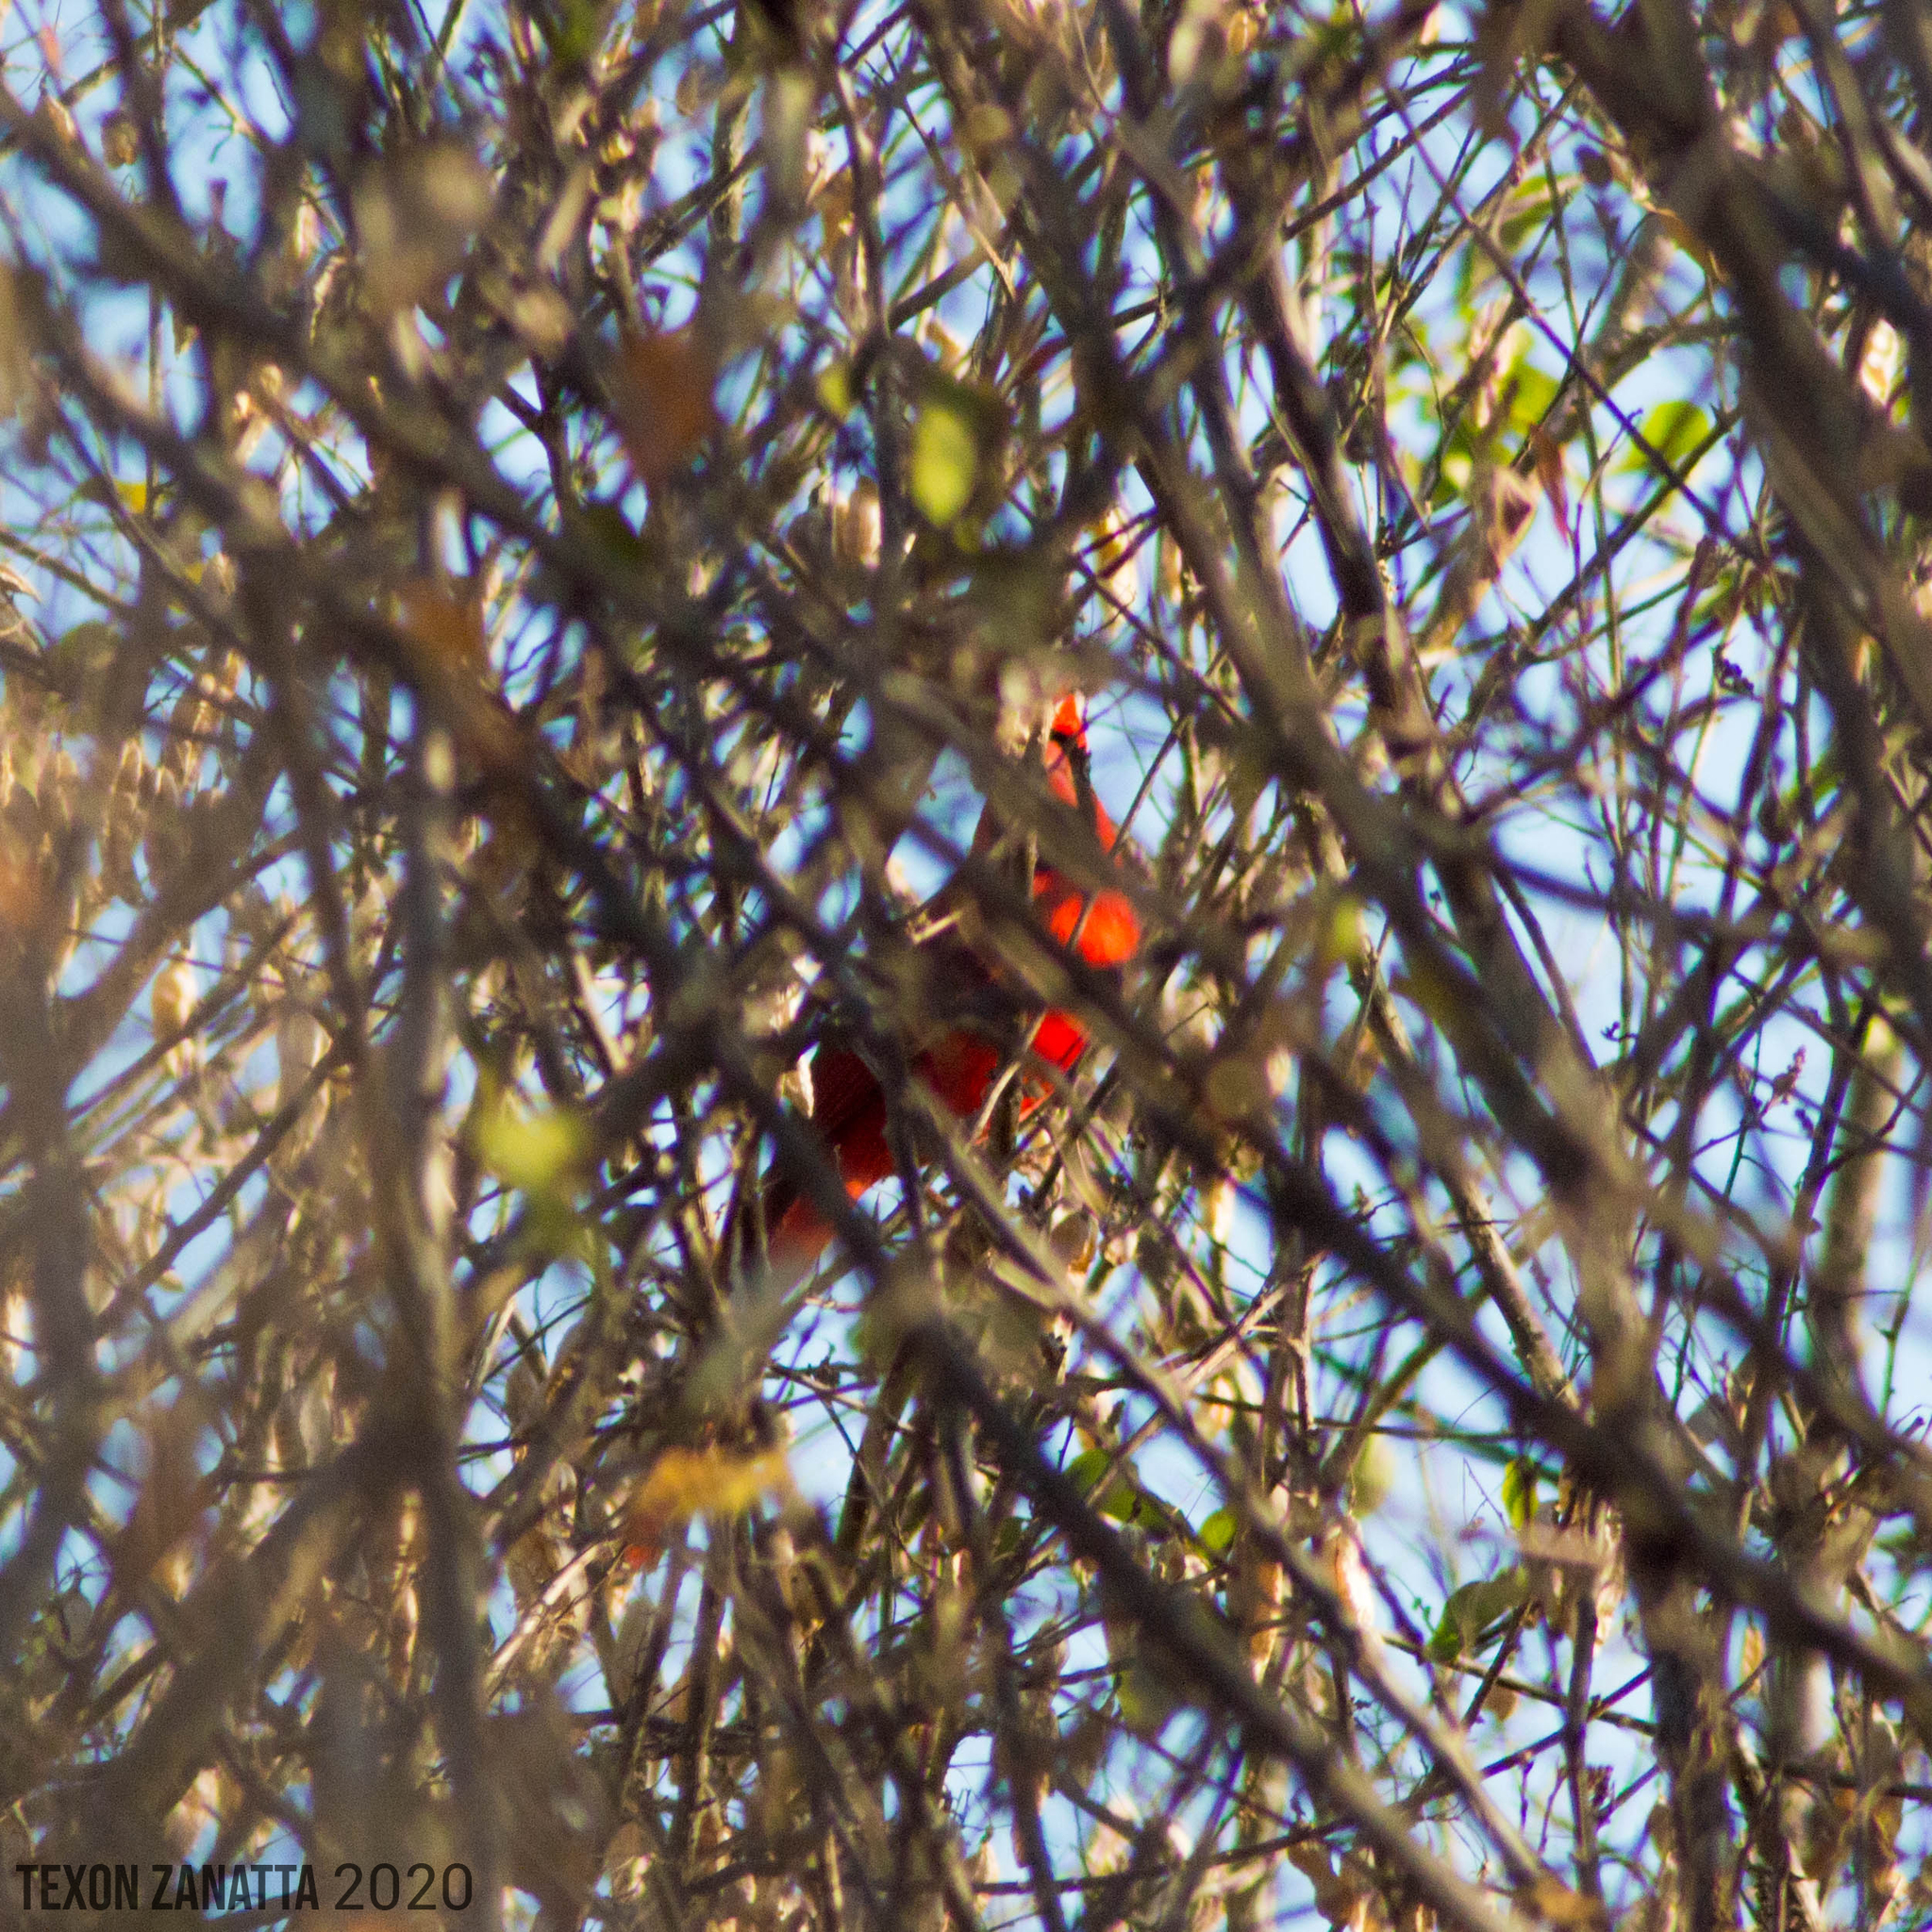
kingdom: Animalia
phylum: Chordata
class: Aves
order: Passeriformes
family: Cardinalidae
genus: Cardinalis
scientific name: Cardinalis cardinalis
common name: Northern cardinal
